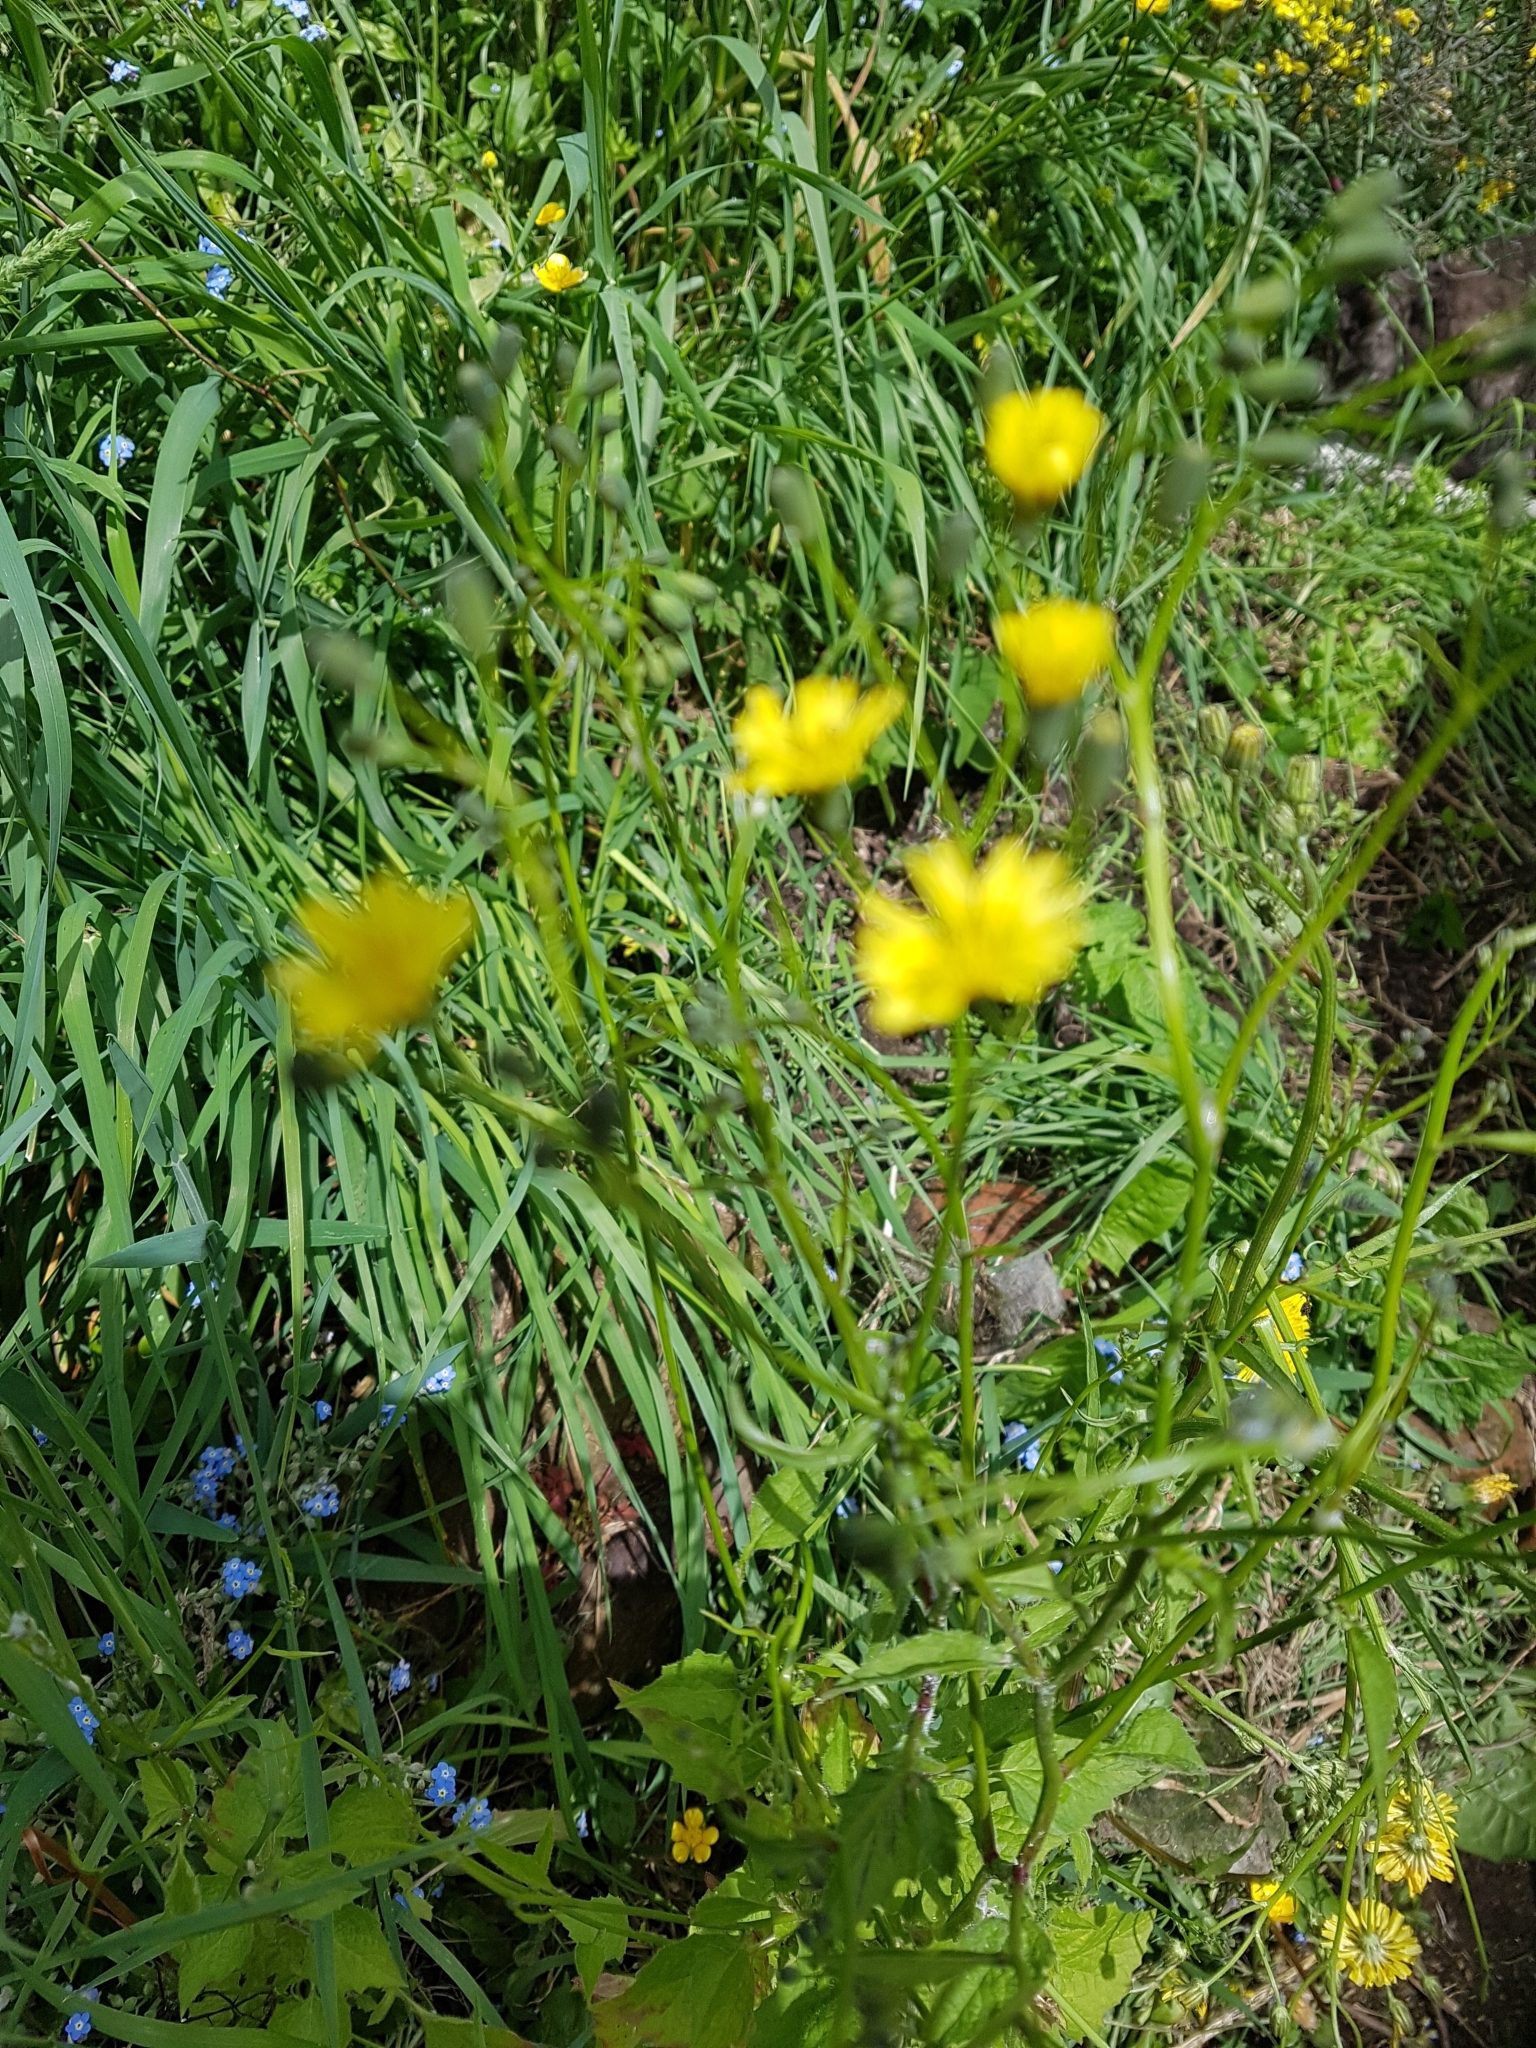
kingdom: Plantae
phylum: Tracheophyta
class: Magnoliopsida
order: Asterales
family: Asteraceae
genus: Lapsana
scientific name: Lapsana communis
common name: Nipplewort
